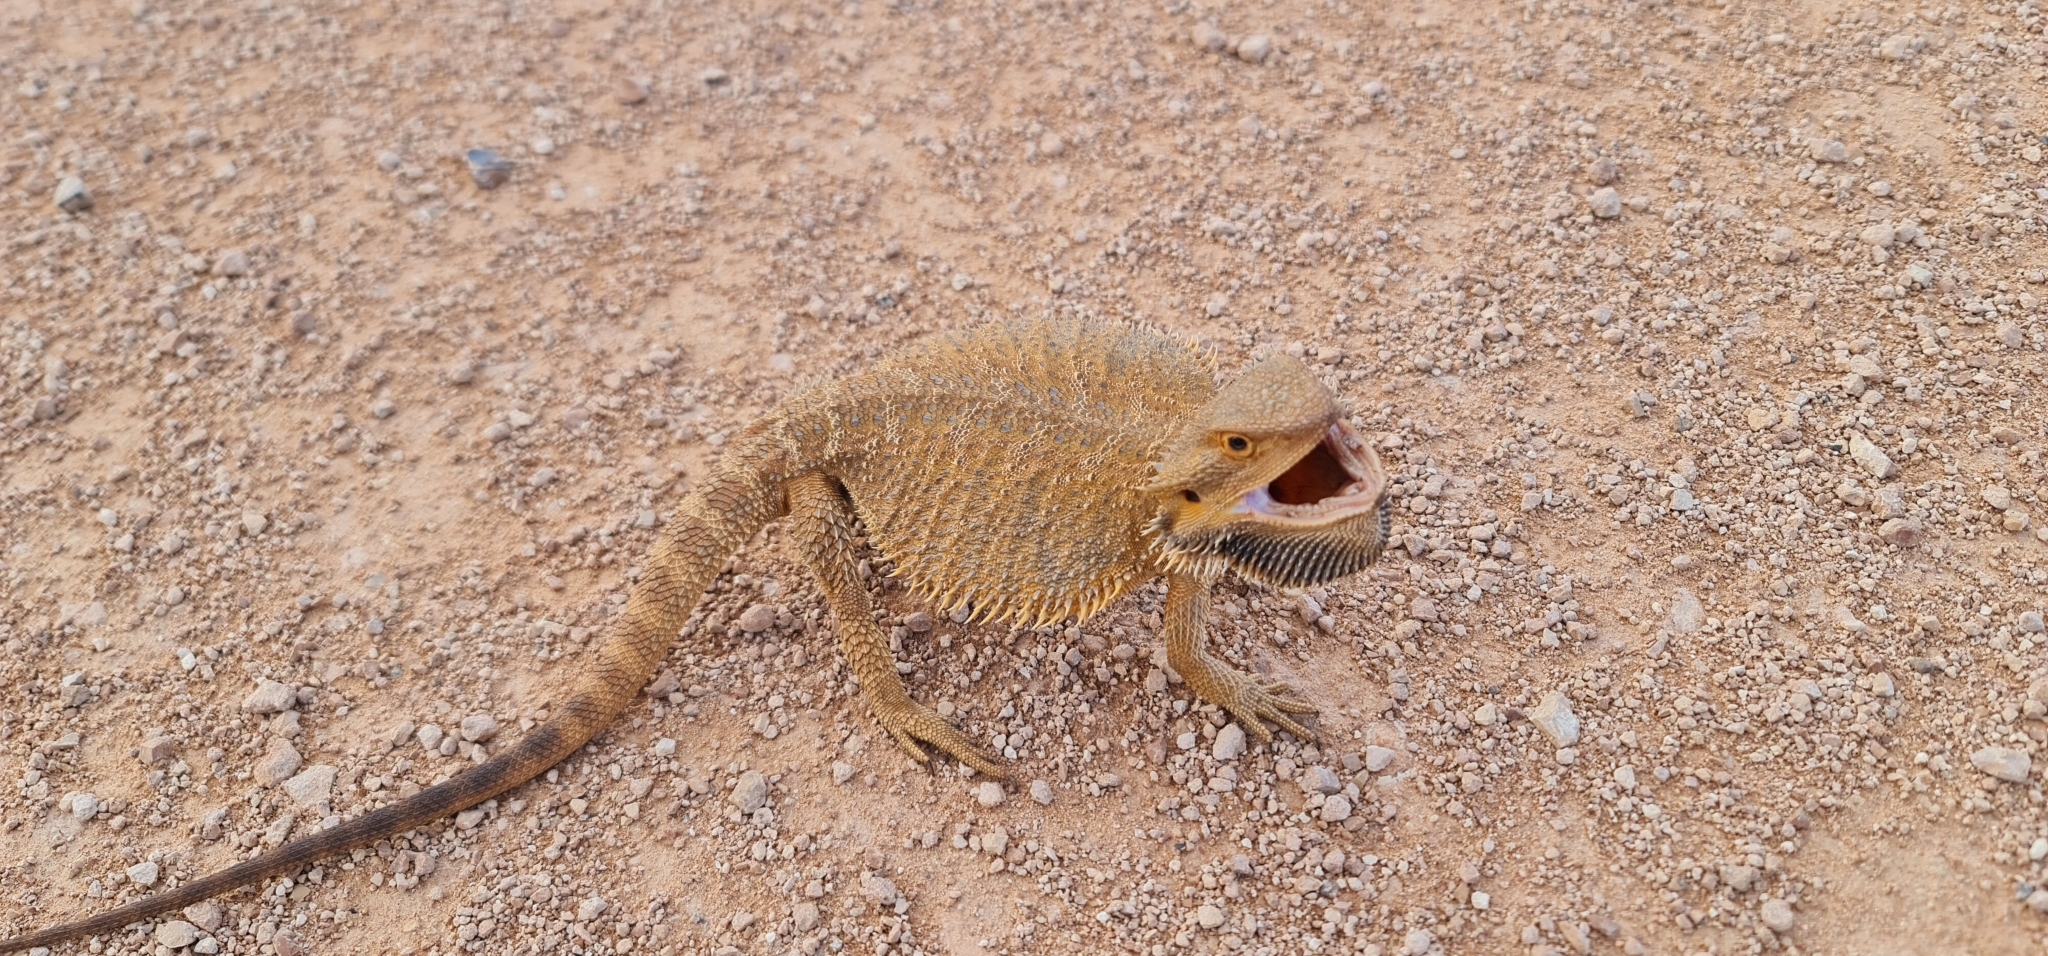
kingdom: Animalia
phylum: Chordata
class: Squamata
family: Agamidae
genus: Pogona
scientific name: Pogona vitticeps
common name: Central bearded dragon
